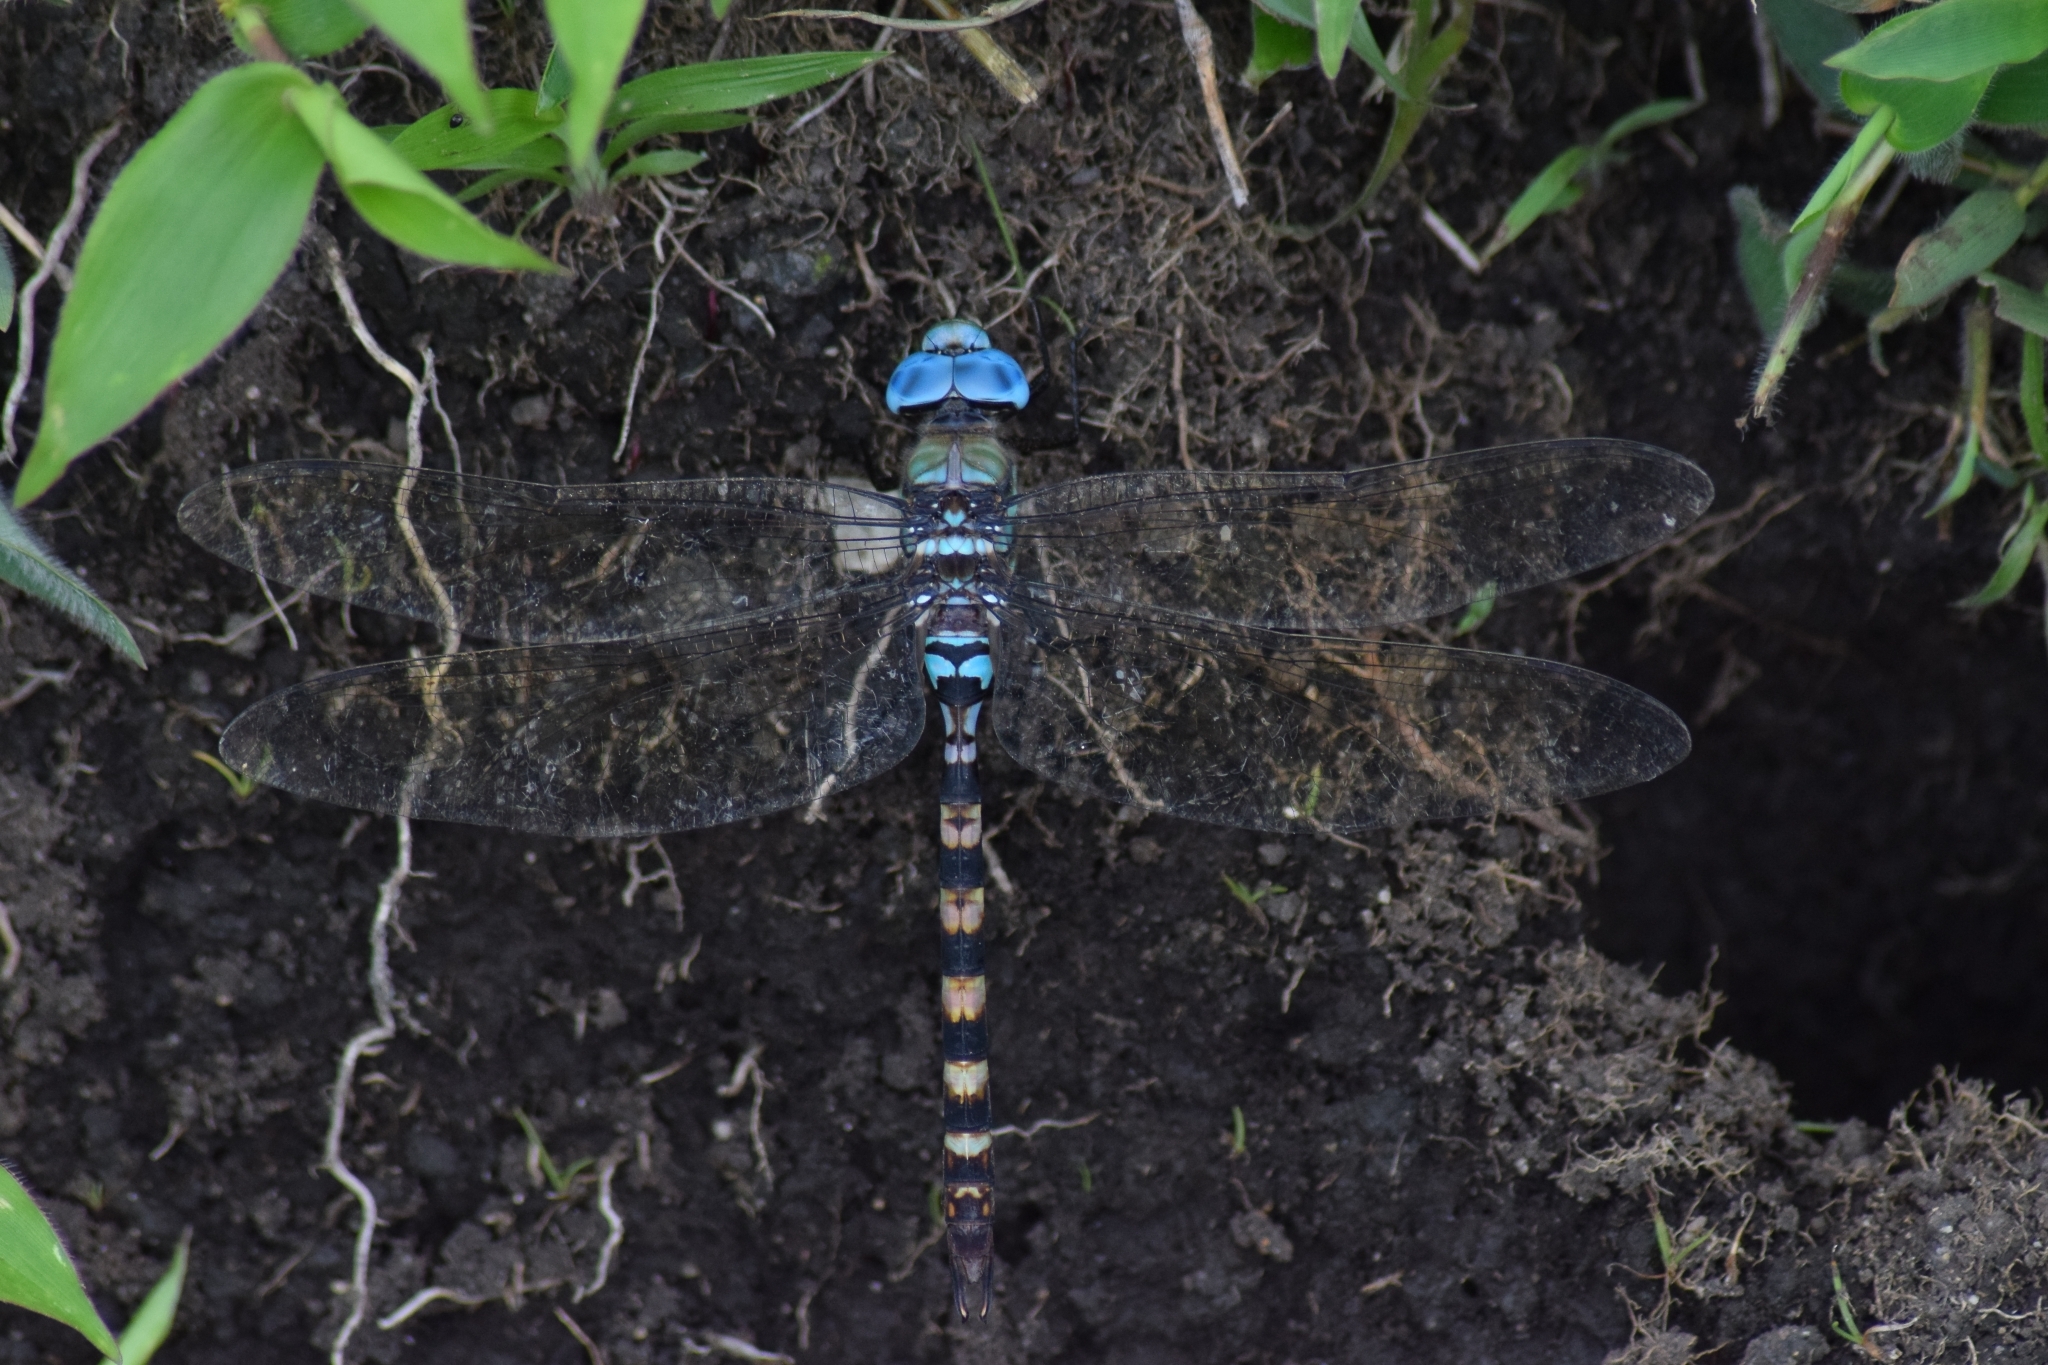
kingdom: Animalia
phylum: Arthropoda
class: Insecta
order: Odonata
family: Aeshnidae
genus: Anax
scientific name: Anax immaculifrons
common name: Magnificent emperor
